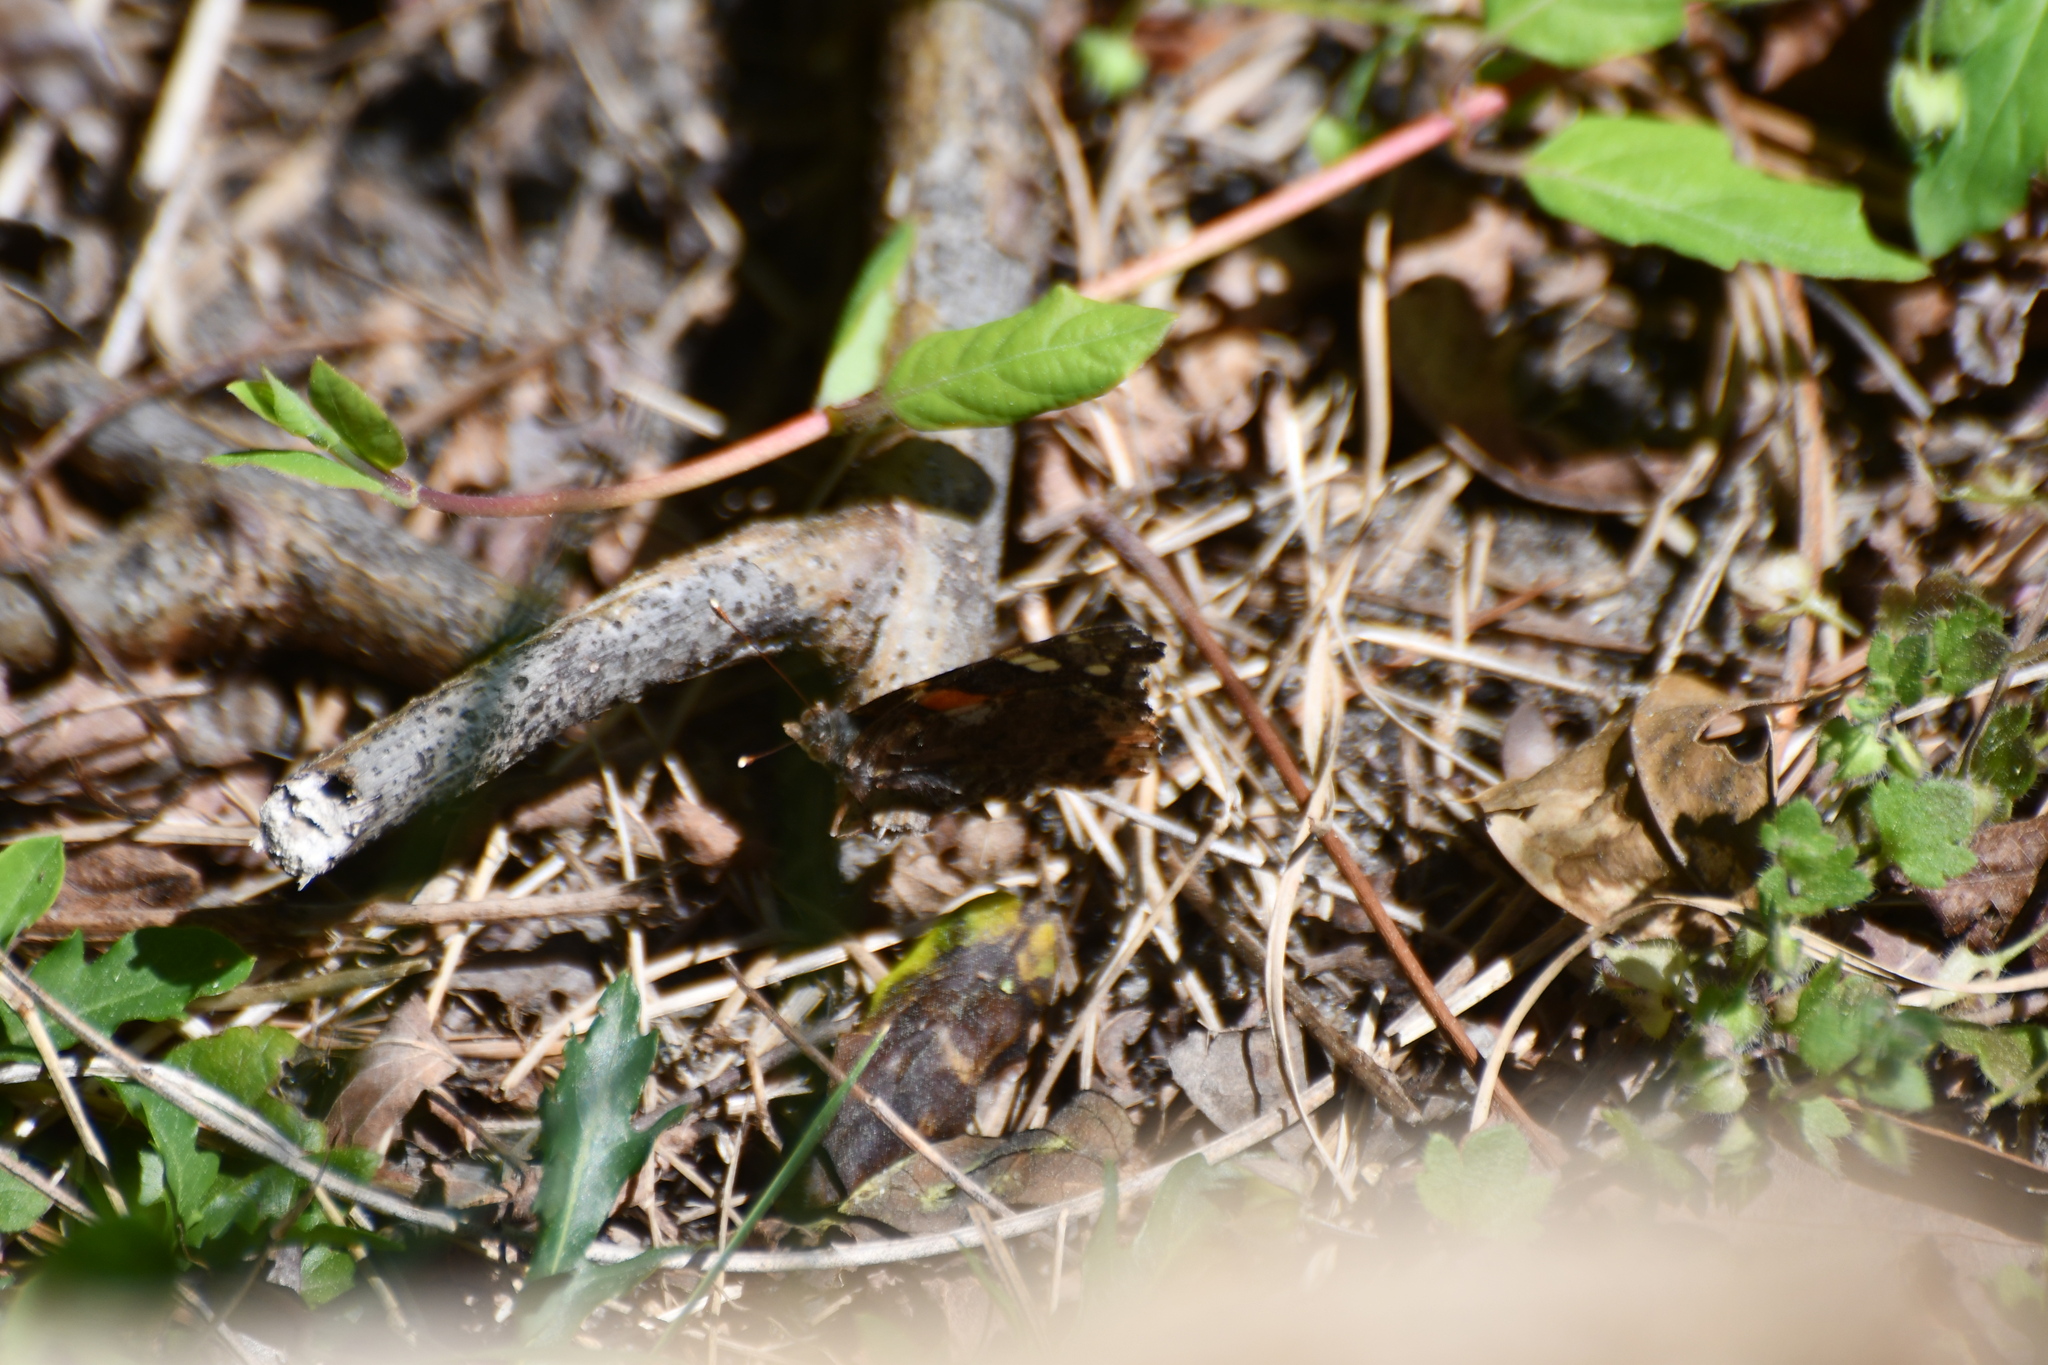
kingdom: Animalia
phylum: Arthropoda
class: Insecta
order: Lepidoptera
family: Nymphalidae
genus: Vanessa
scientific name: Vanessa atalanta
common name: Red admiral
